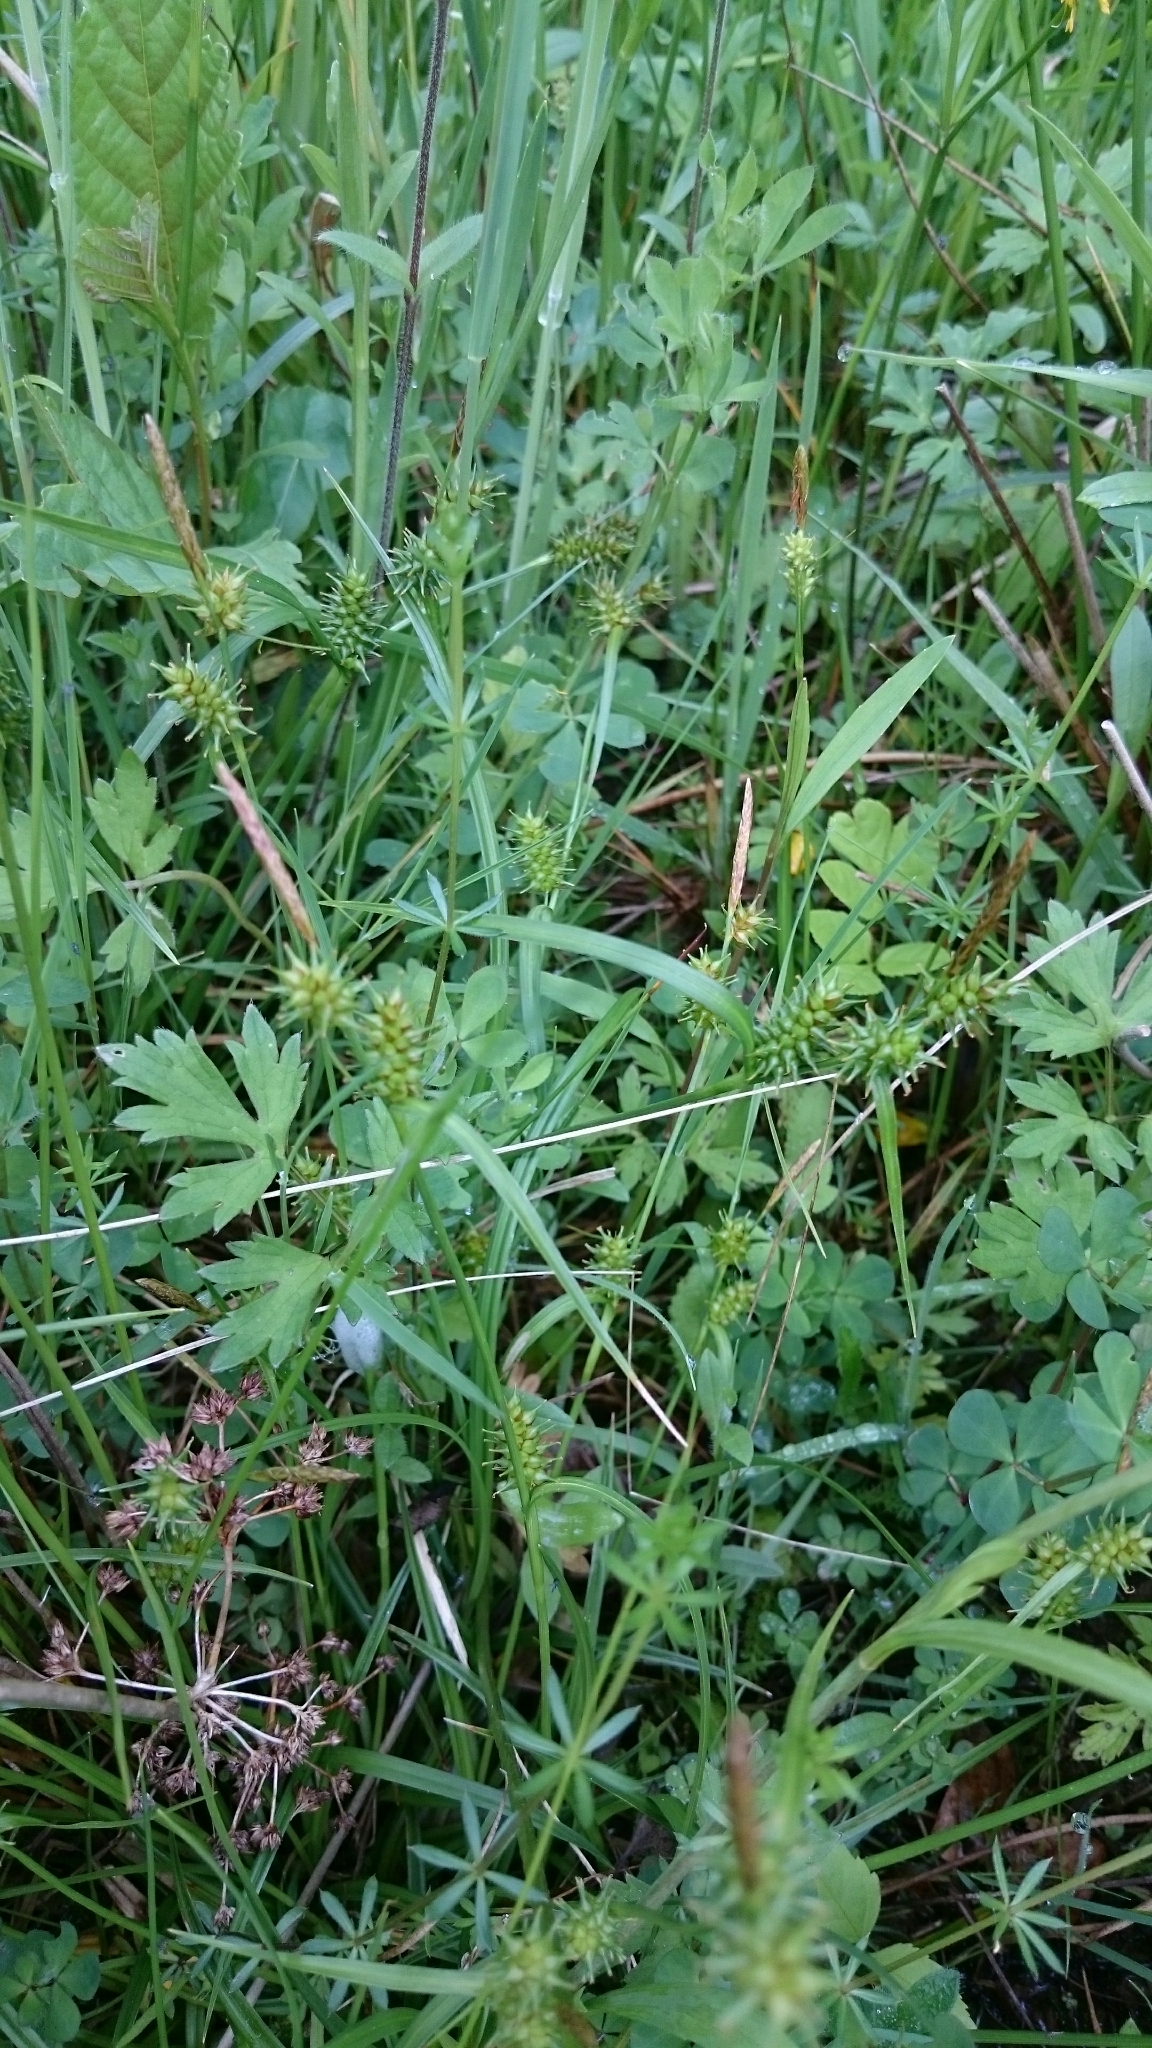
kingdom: Plantae
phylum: Tracheophyta
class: Liliopsida
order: Poales
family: Cyperaceae
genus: Carex
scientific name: Carex demissa
